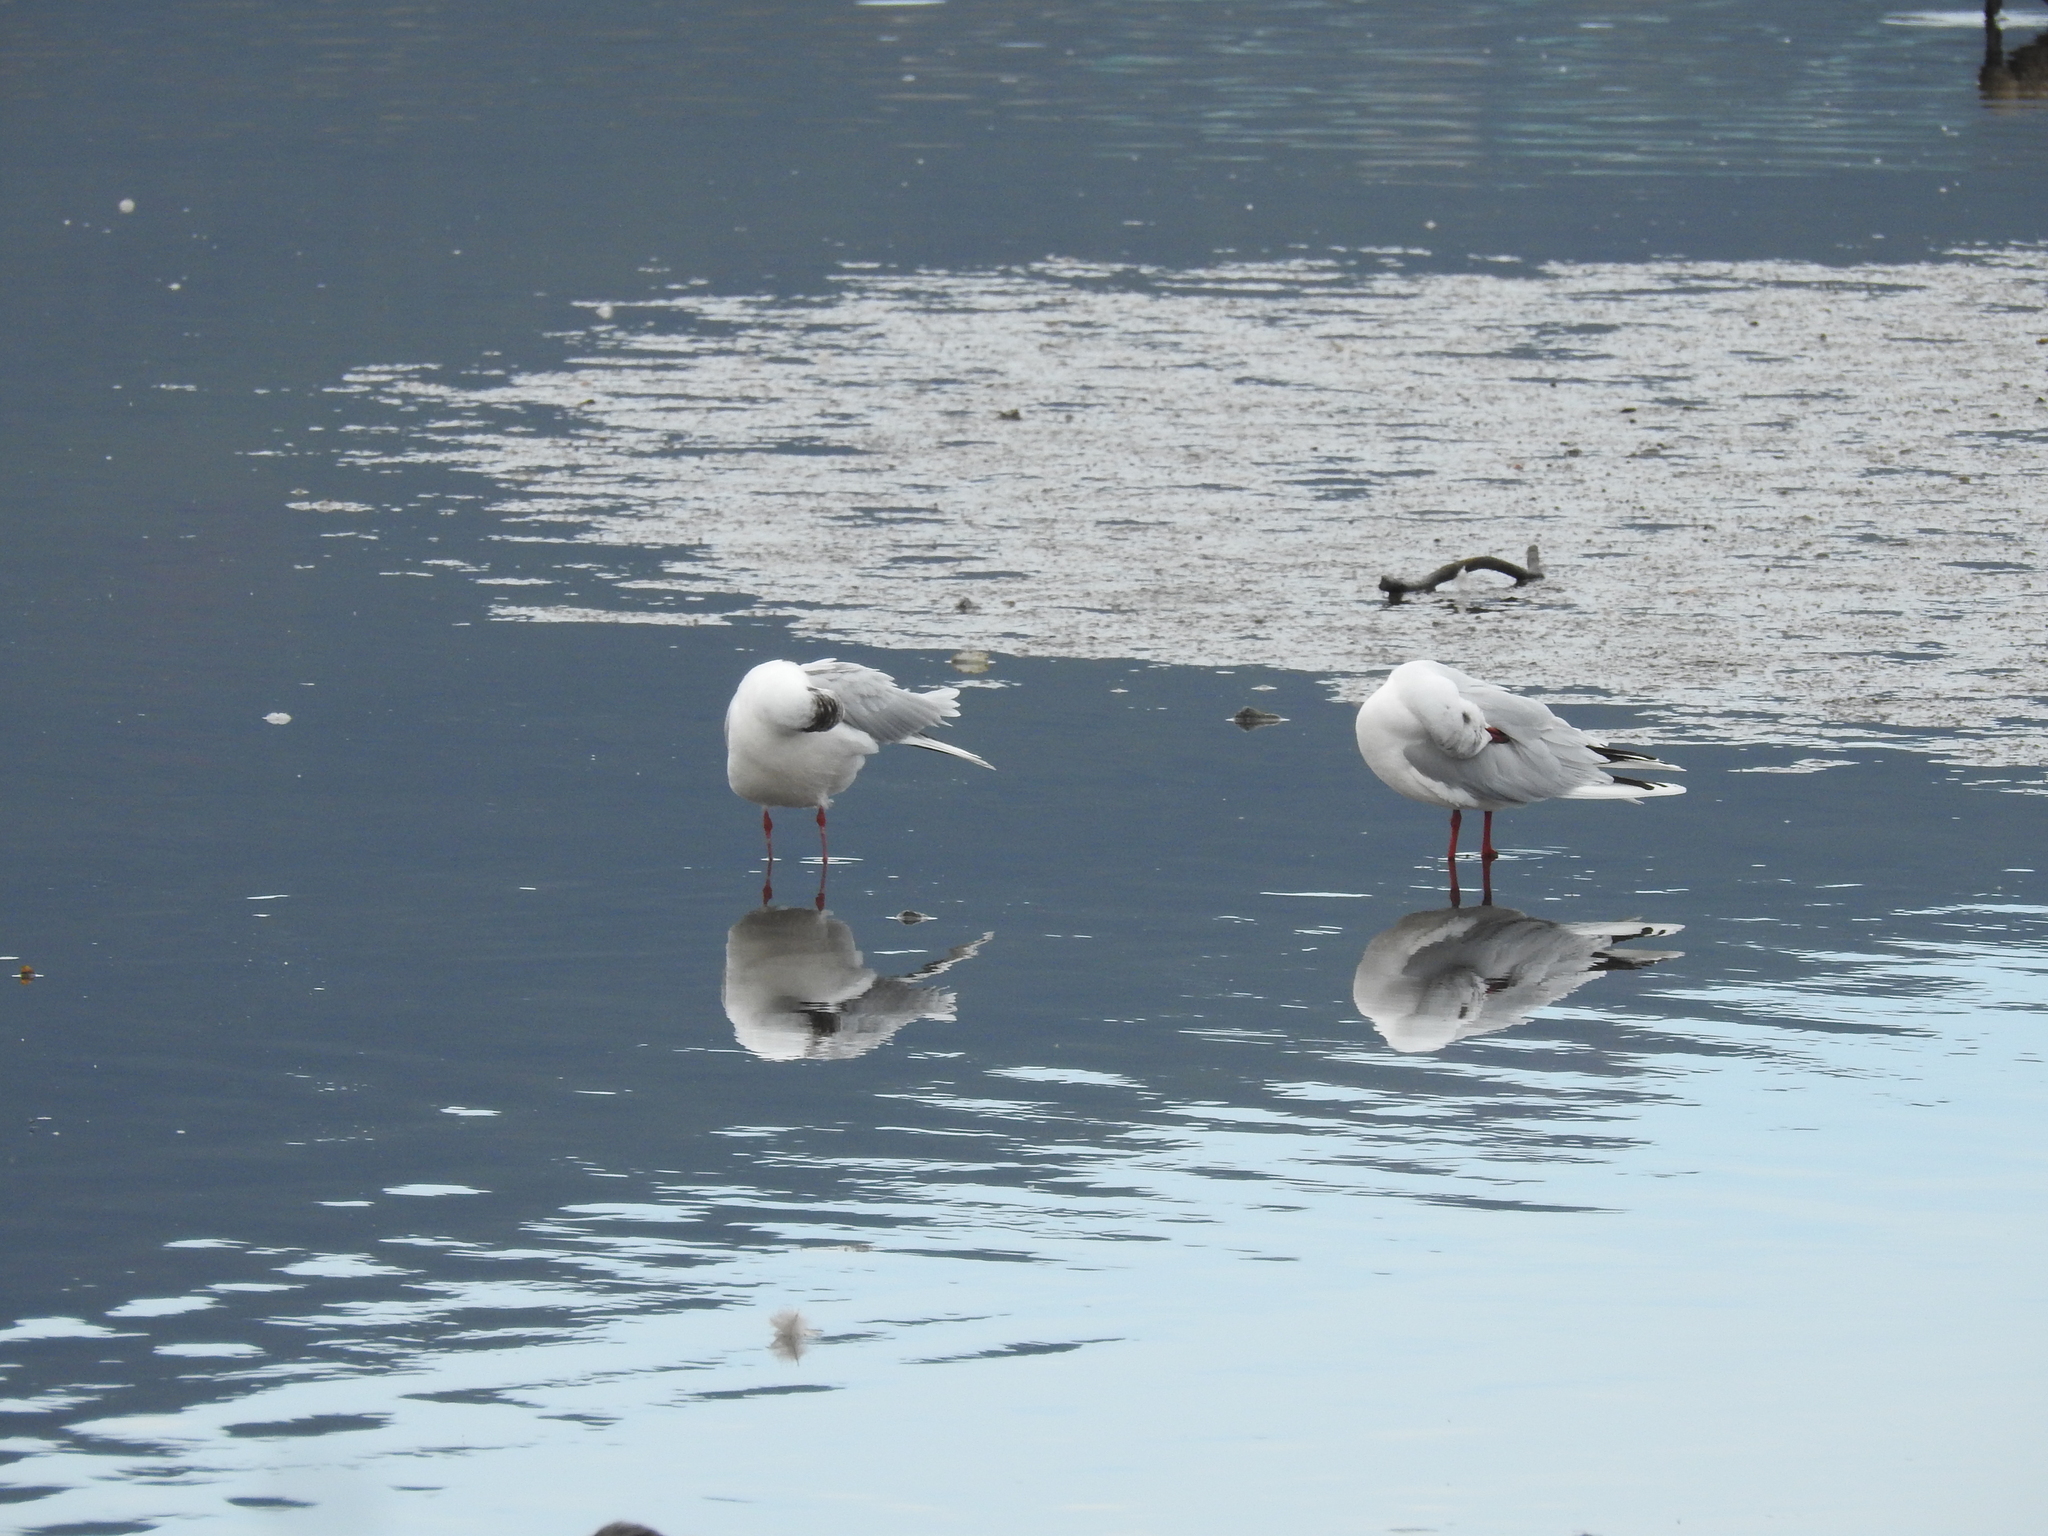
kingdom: Animalia
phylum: Chordata
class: Aves
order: Charadriiformes
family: Laridae
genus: Chroicocephalus
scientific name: Chroicocephalus maculipennis
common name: Brown-hooded gull
